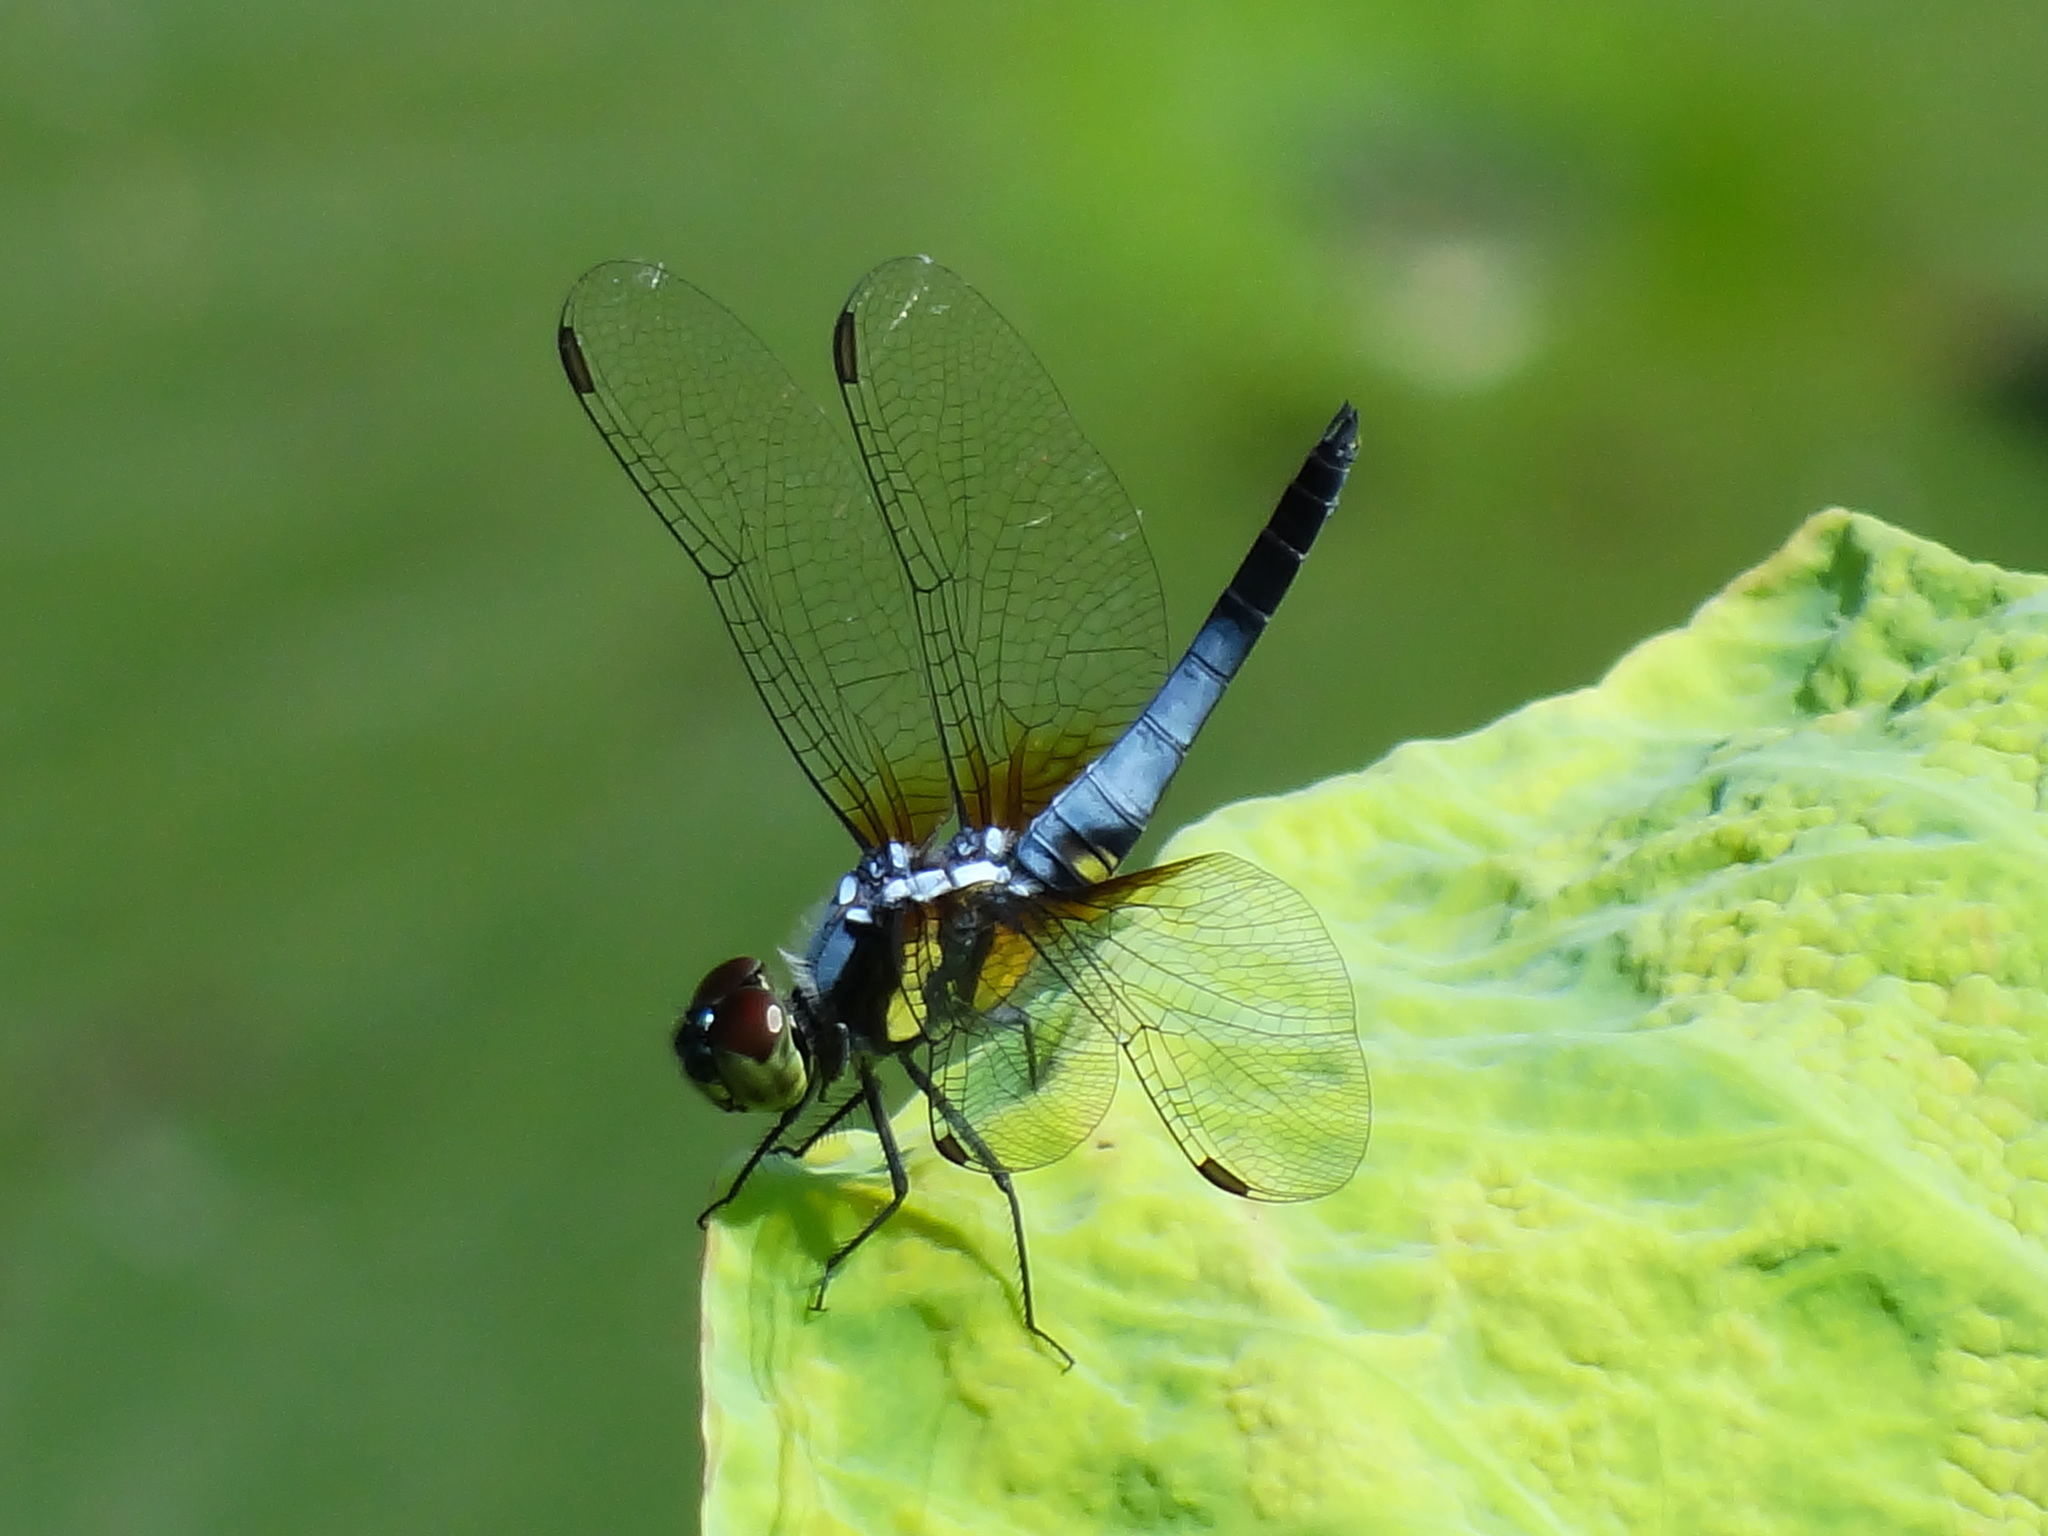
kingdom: Animalia
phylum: Arthropoda
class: Insecta
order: Odonata
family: Libellulidae
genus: Brachydiplax
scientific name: Brachydiplax chalybea
